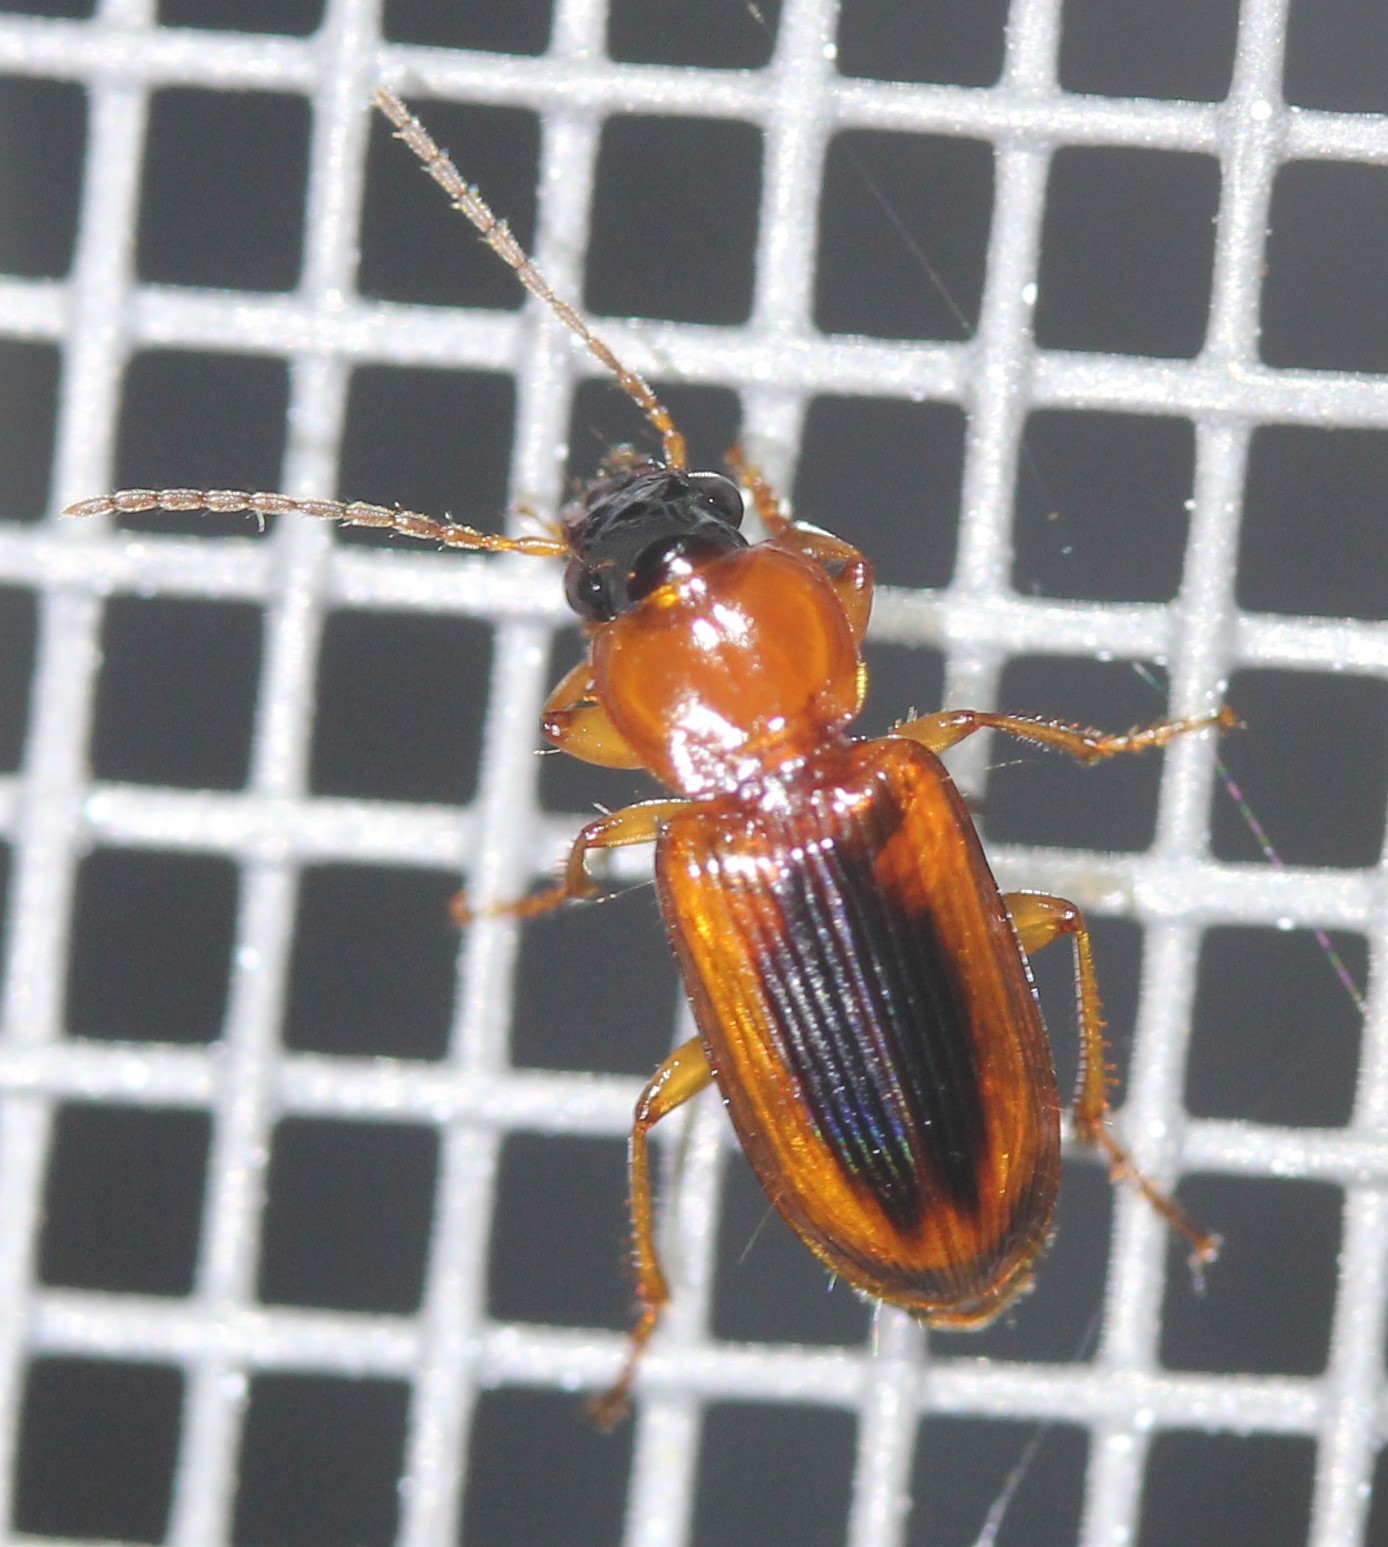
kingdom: Animalia
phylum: Arthropoda
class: Insecta
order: Coleoptera
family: Carabidae
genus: Stenolophus
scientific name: Stenolophus lecontei
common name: Leconte's seedcorn beetle
